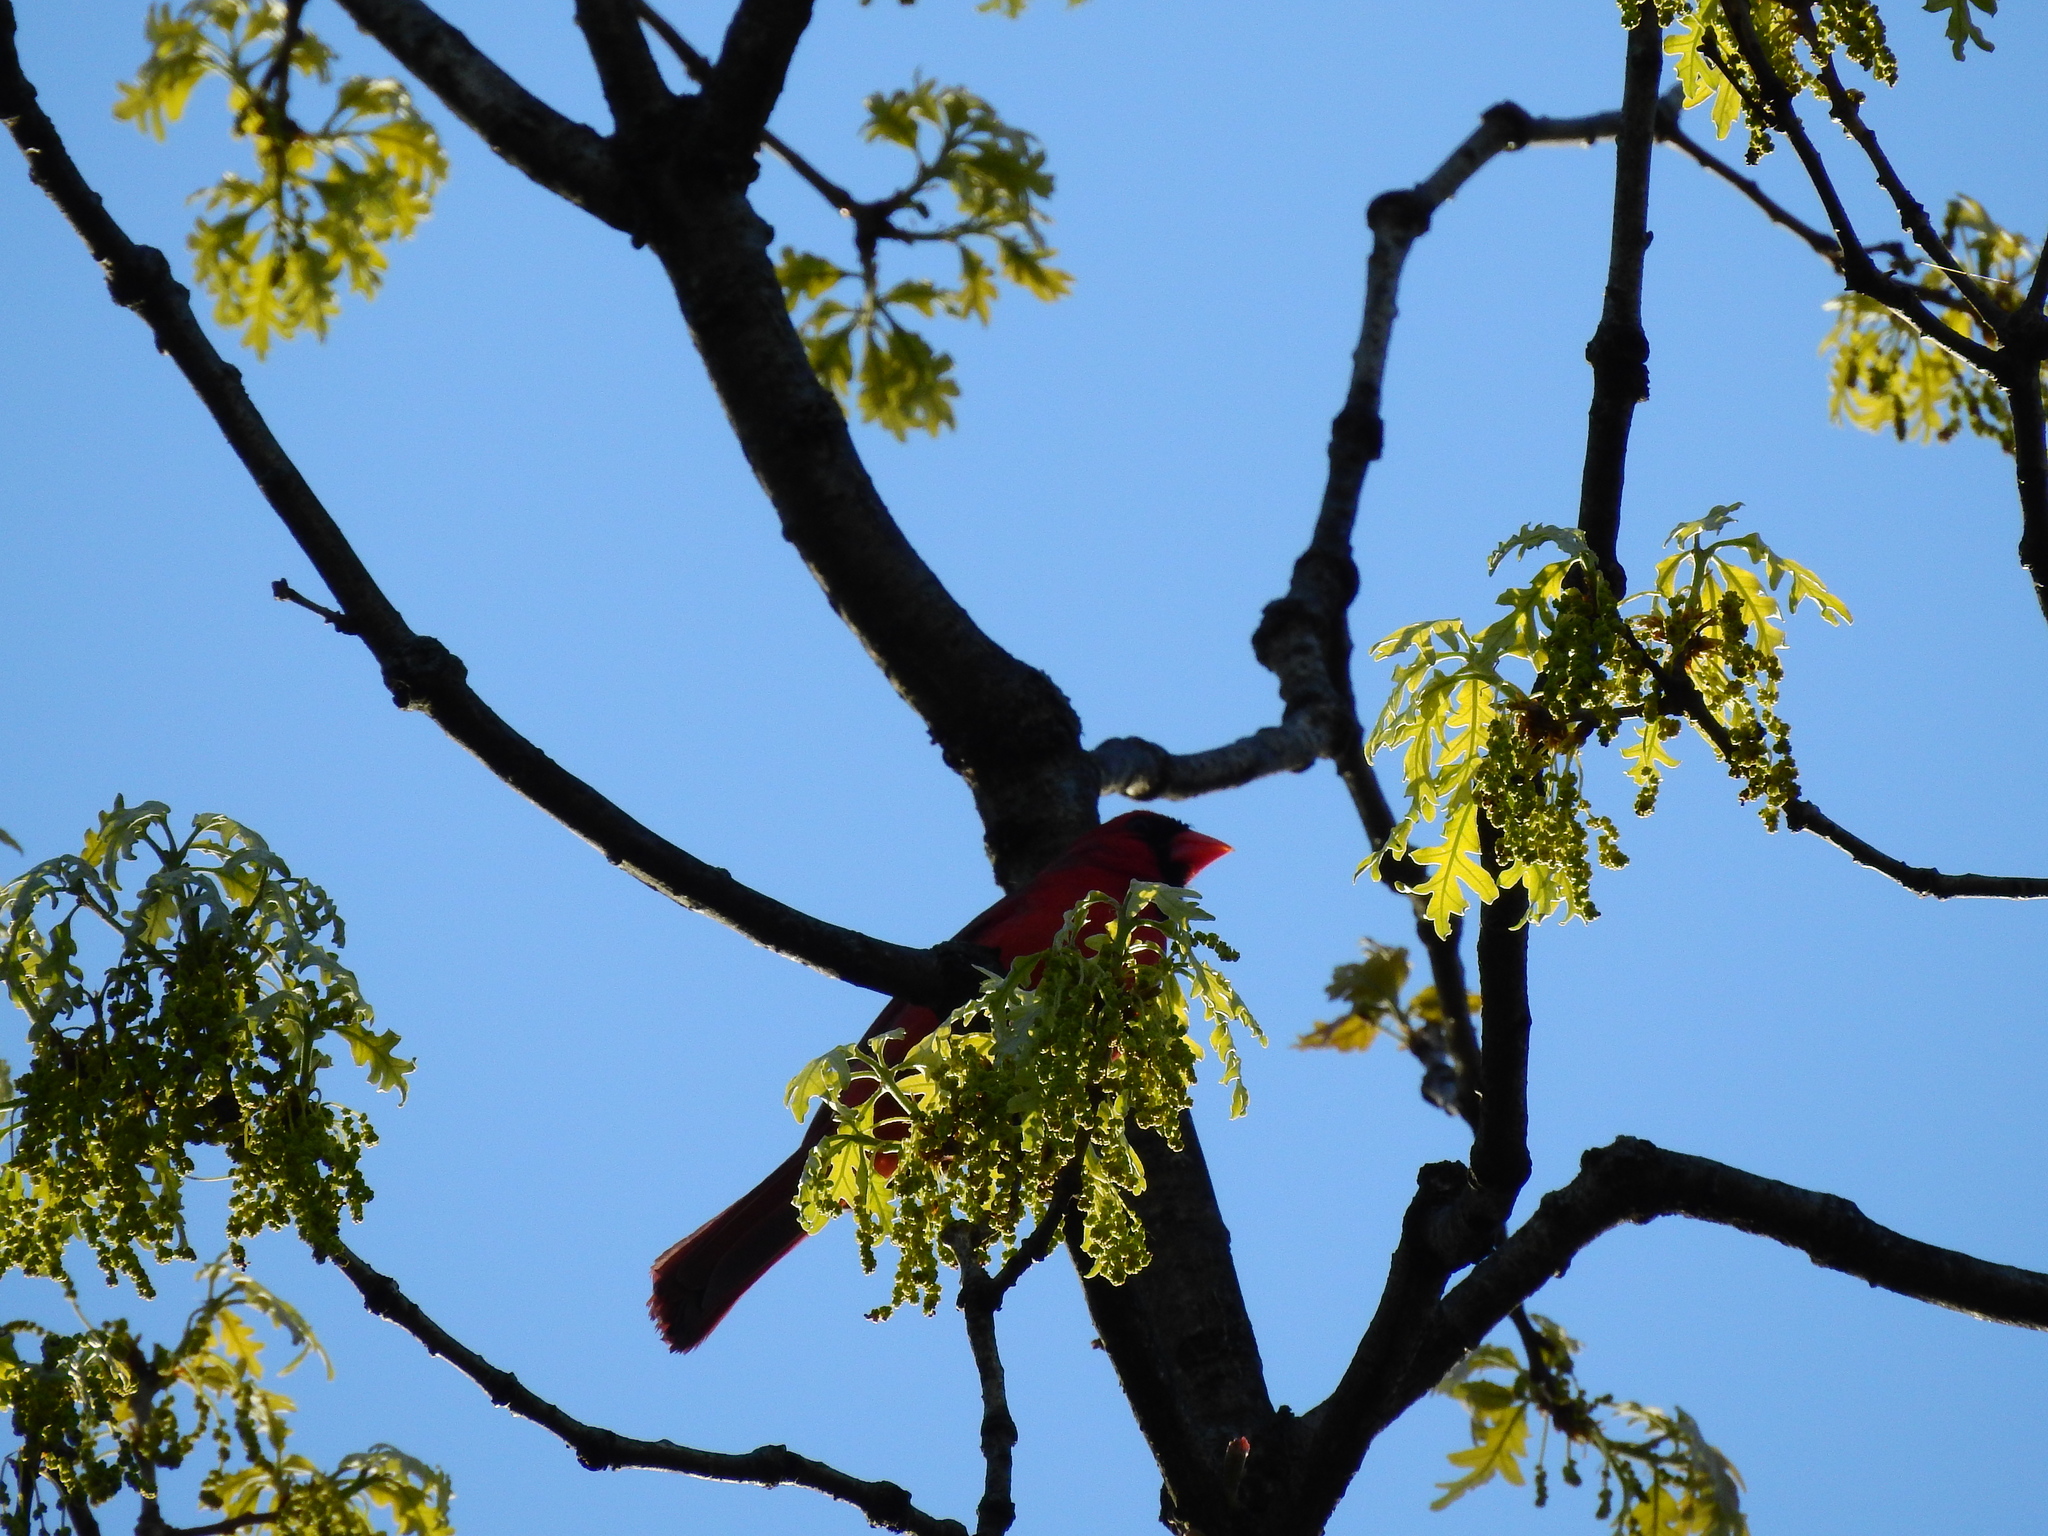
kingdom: Animalia
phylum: Chordata
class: Aves
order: Passeriformes
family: Cardinalidae
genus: Cardinalis
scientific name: Cardinalis cardinalis
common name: Northern cardinal
